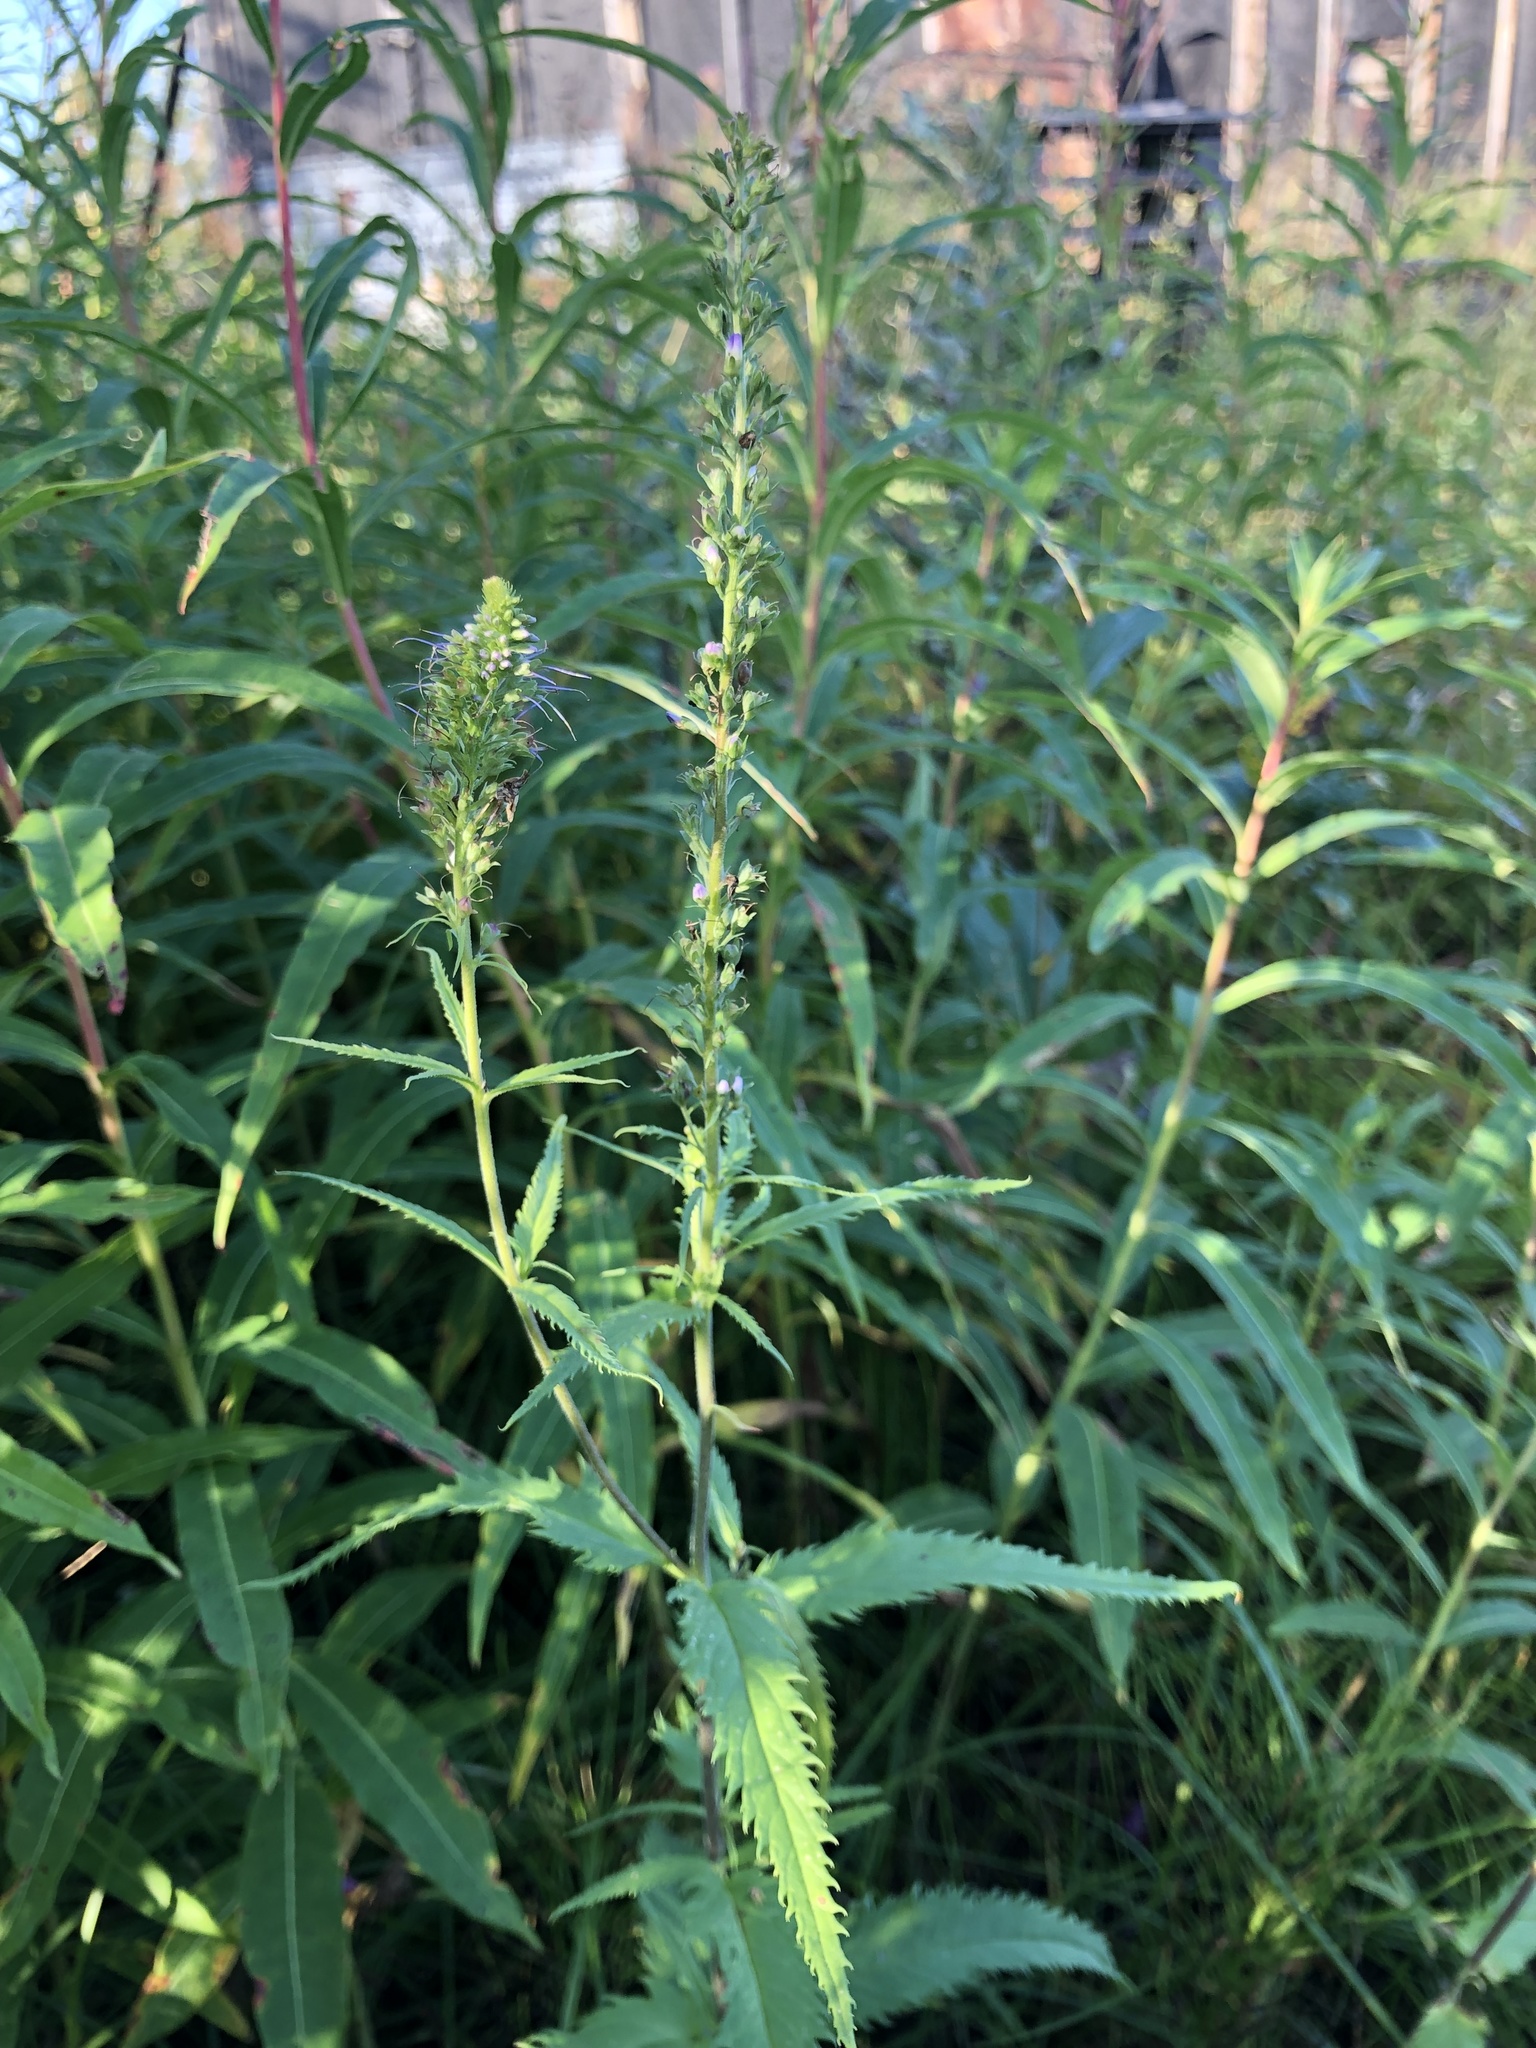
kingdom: Plantae
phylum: Tracheophyta
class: Magnoliopsida
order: Lamiales
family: Plantaginaceae
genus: Veronica
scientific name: Veronica longifolia
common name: Garden speedwell
